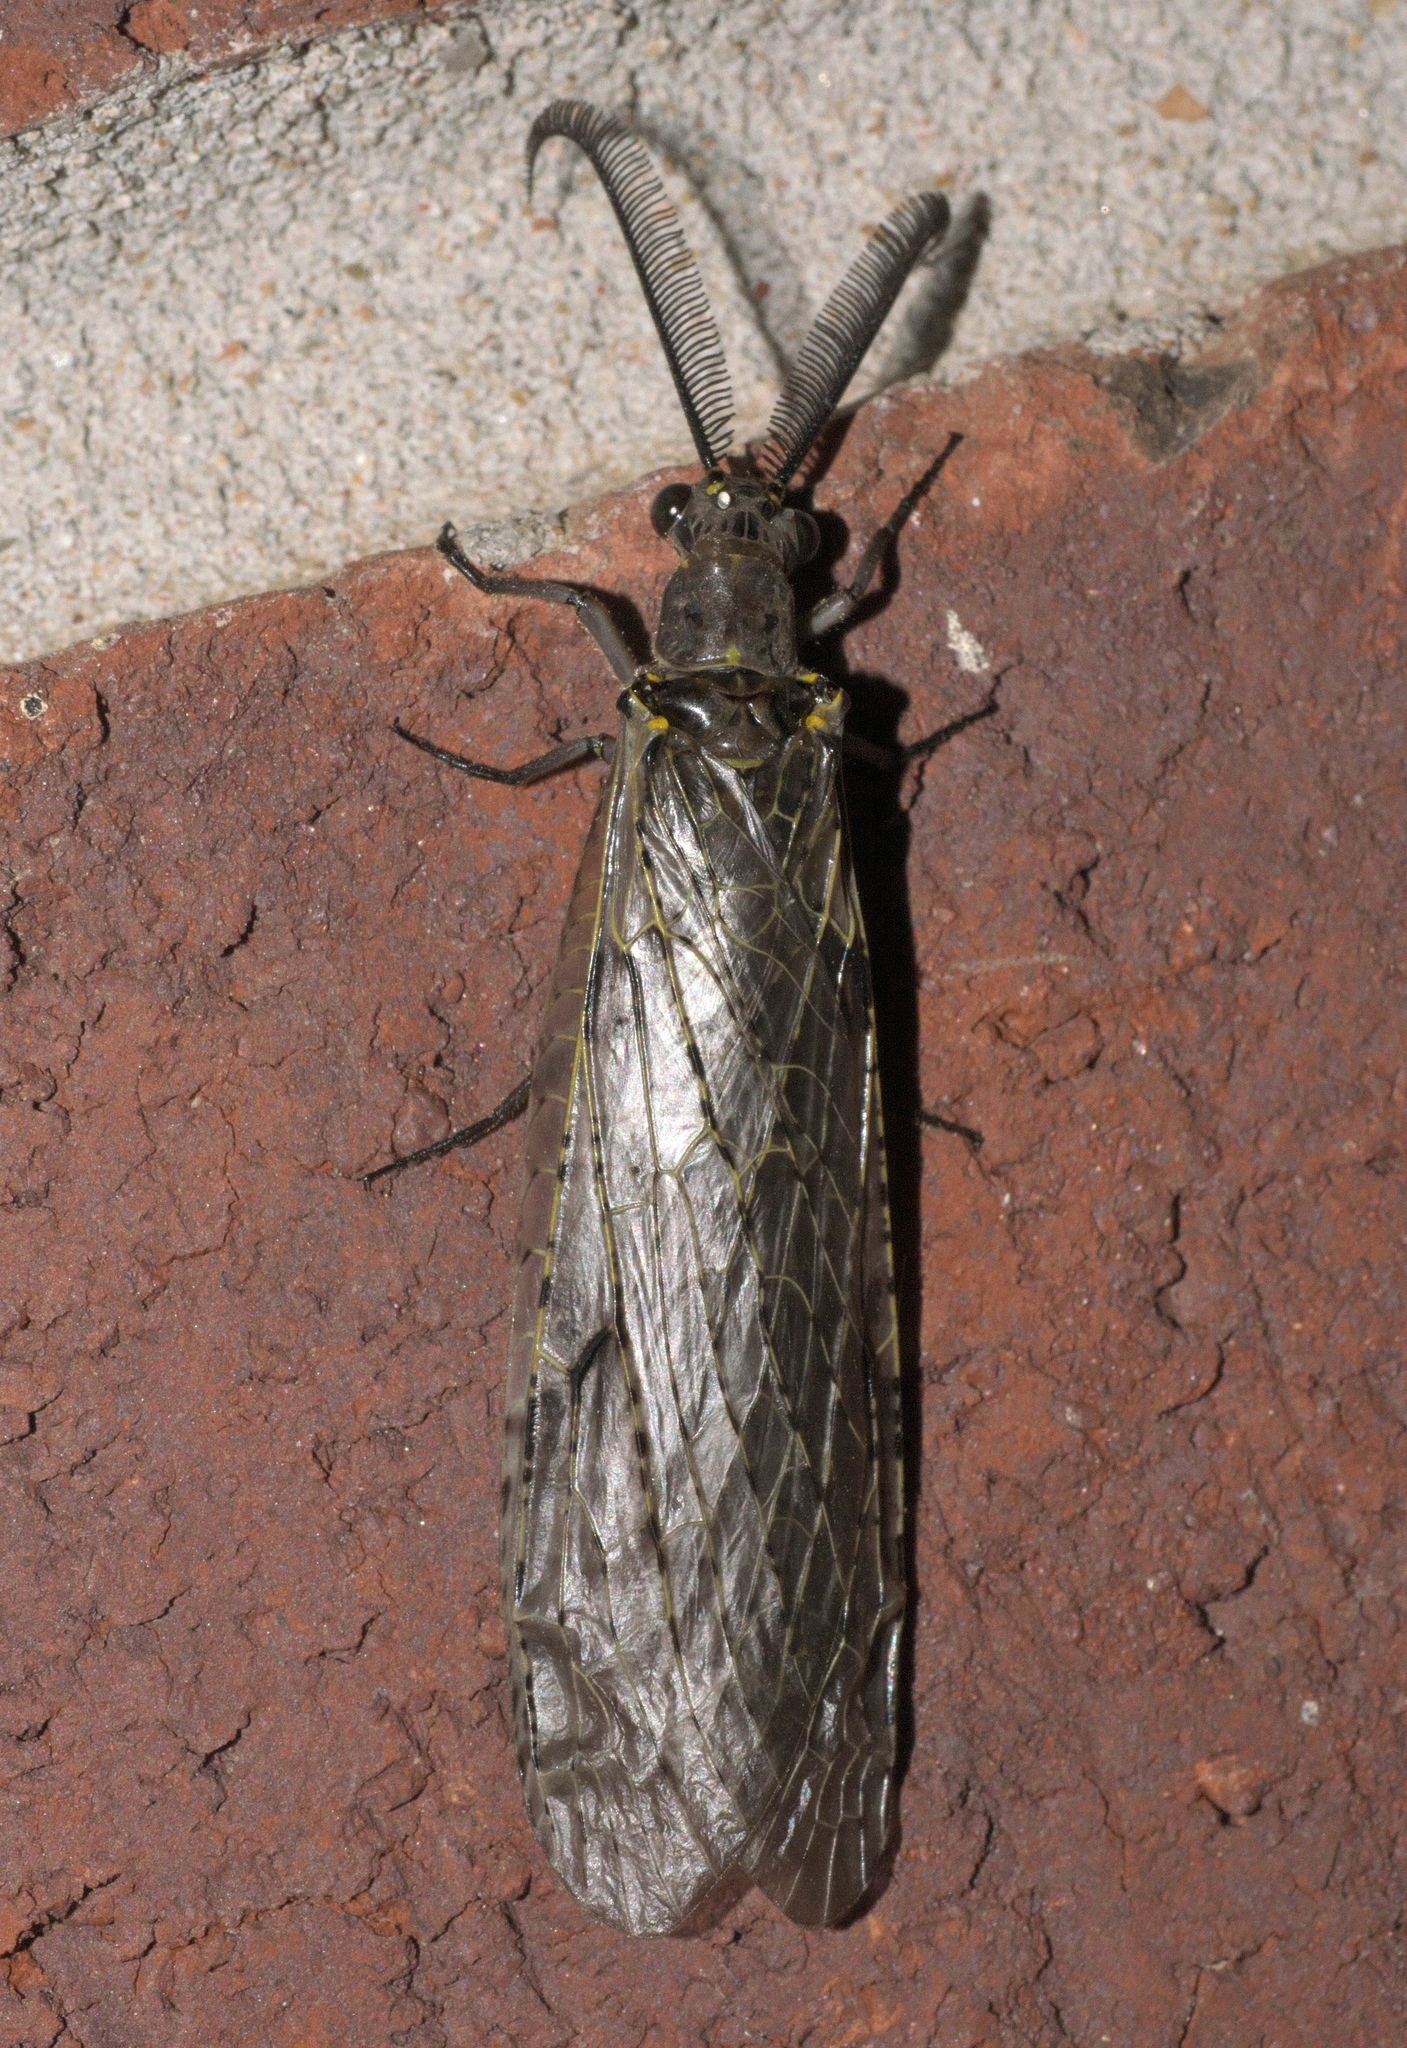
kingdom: Animalia
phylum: Arthropoda
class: Insecta
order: Megaloptera
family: Corydalidae
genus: Chauliodes
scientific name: Chauliodes rastricornis
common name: Spring fishfly
